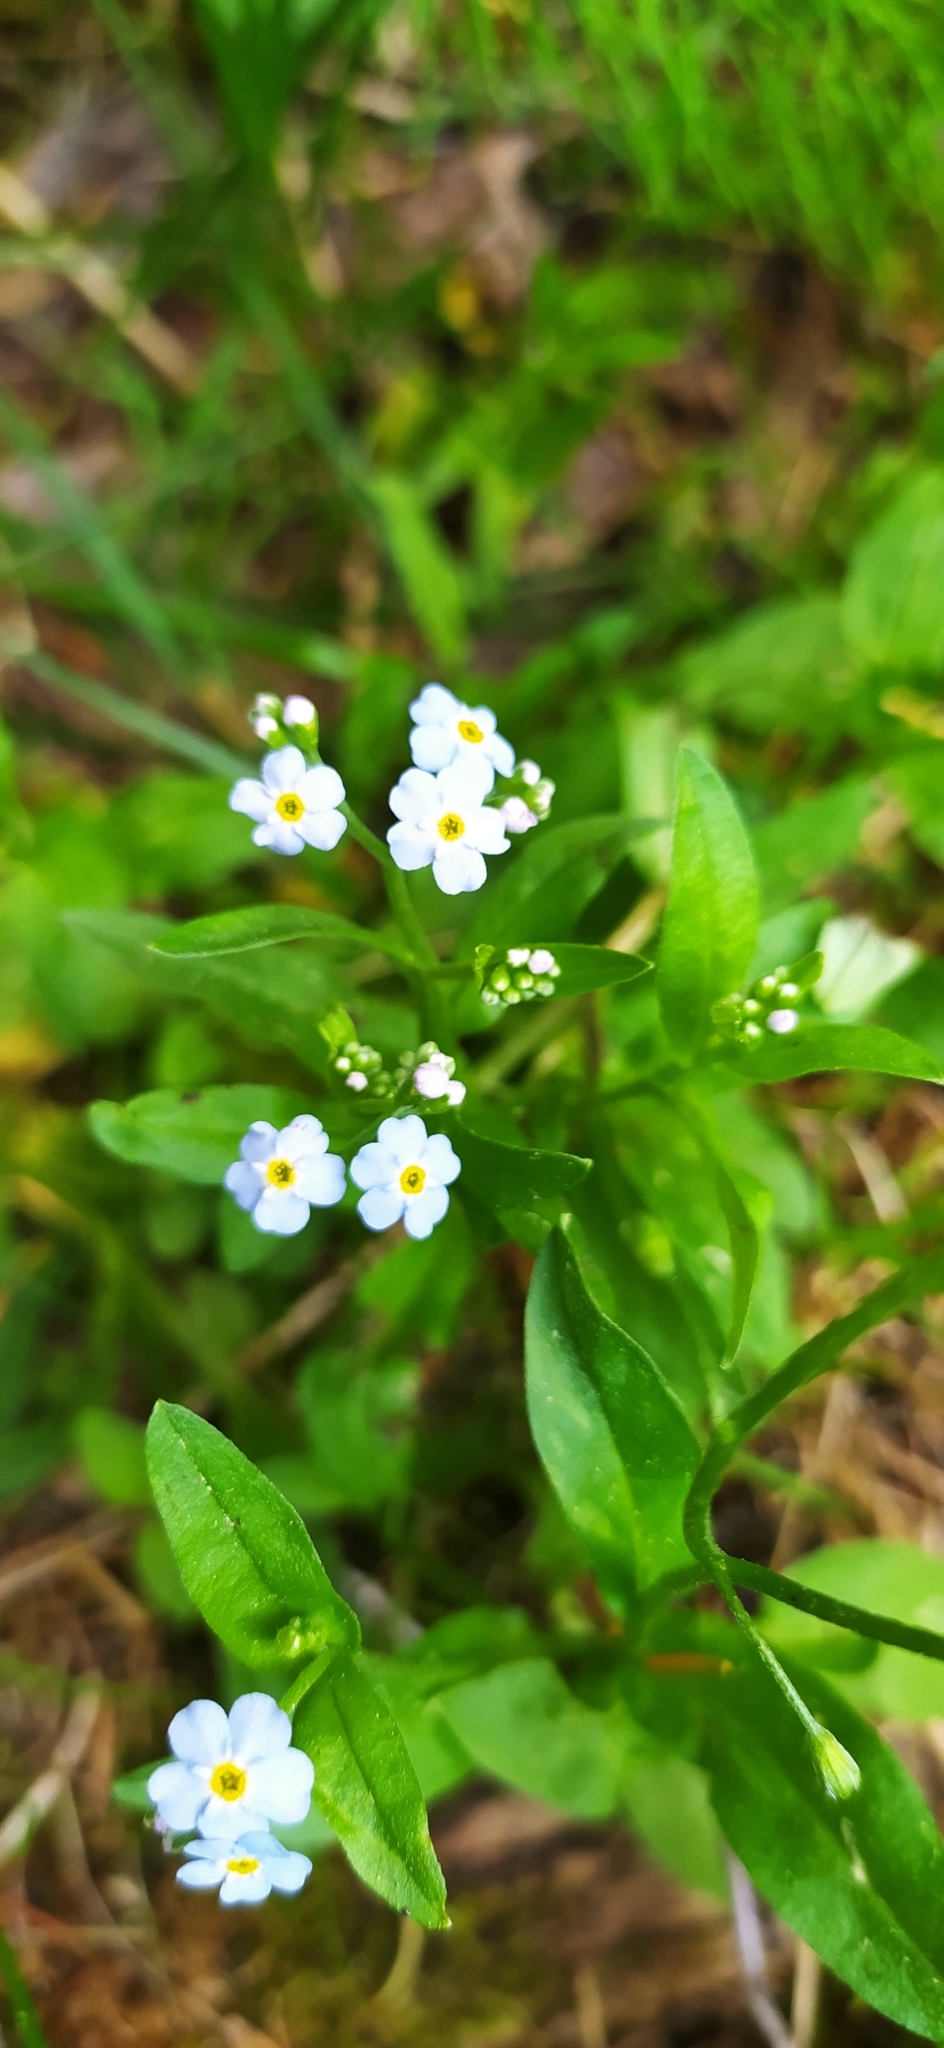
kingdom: Plantae
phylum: Tracheophyta
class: Magnoliopsida
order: Boraginales
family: Boraginaceae
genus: Myosotis
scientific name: Myosotis scorpioides
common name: Water forget-me-not
